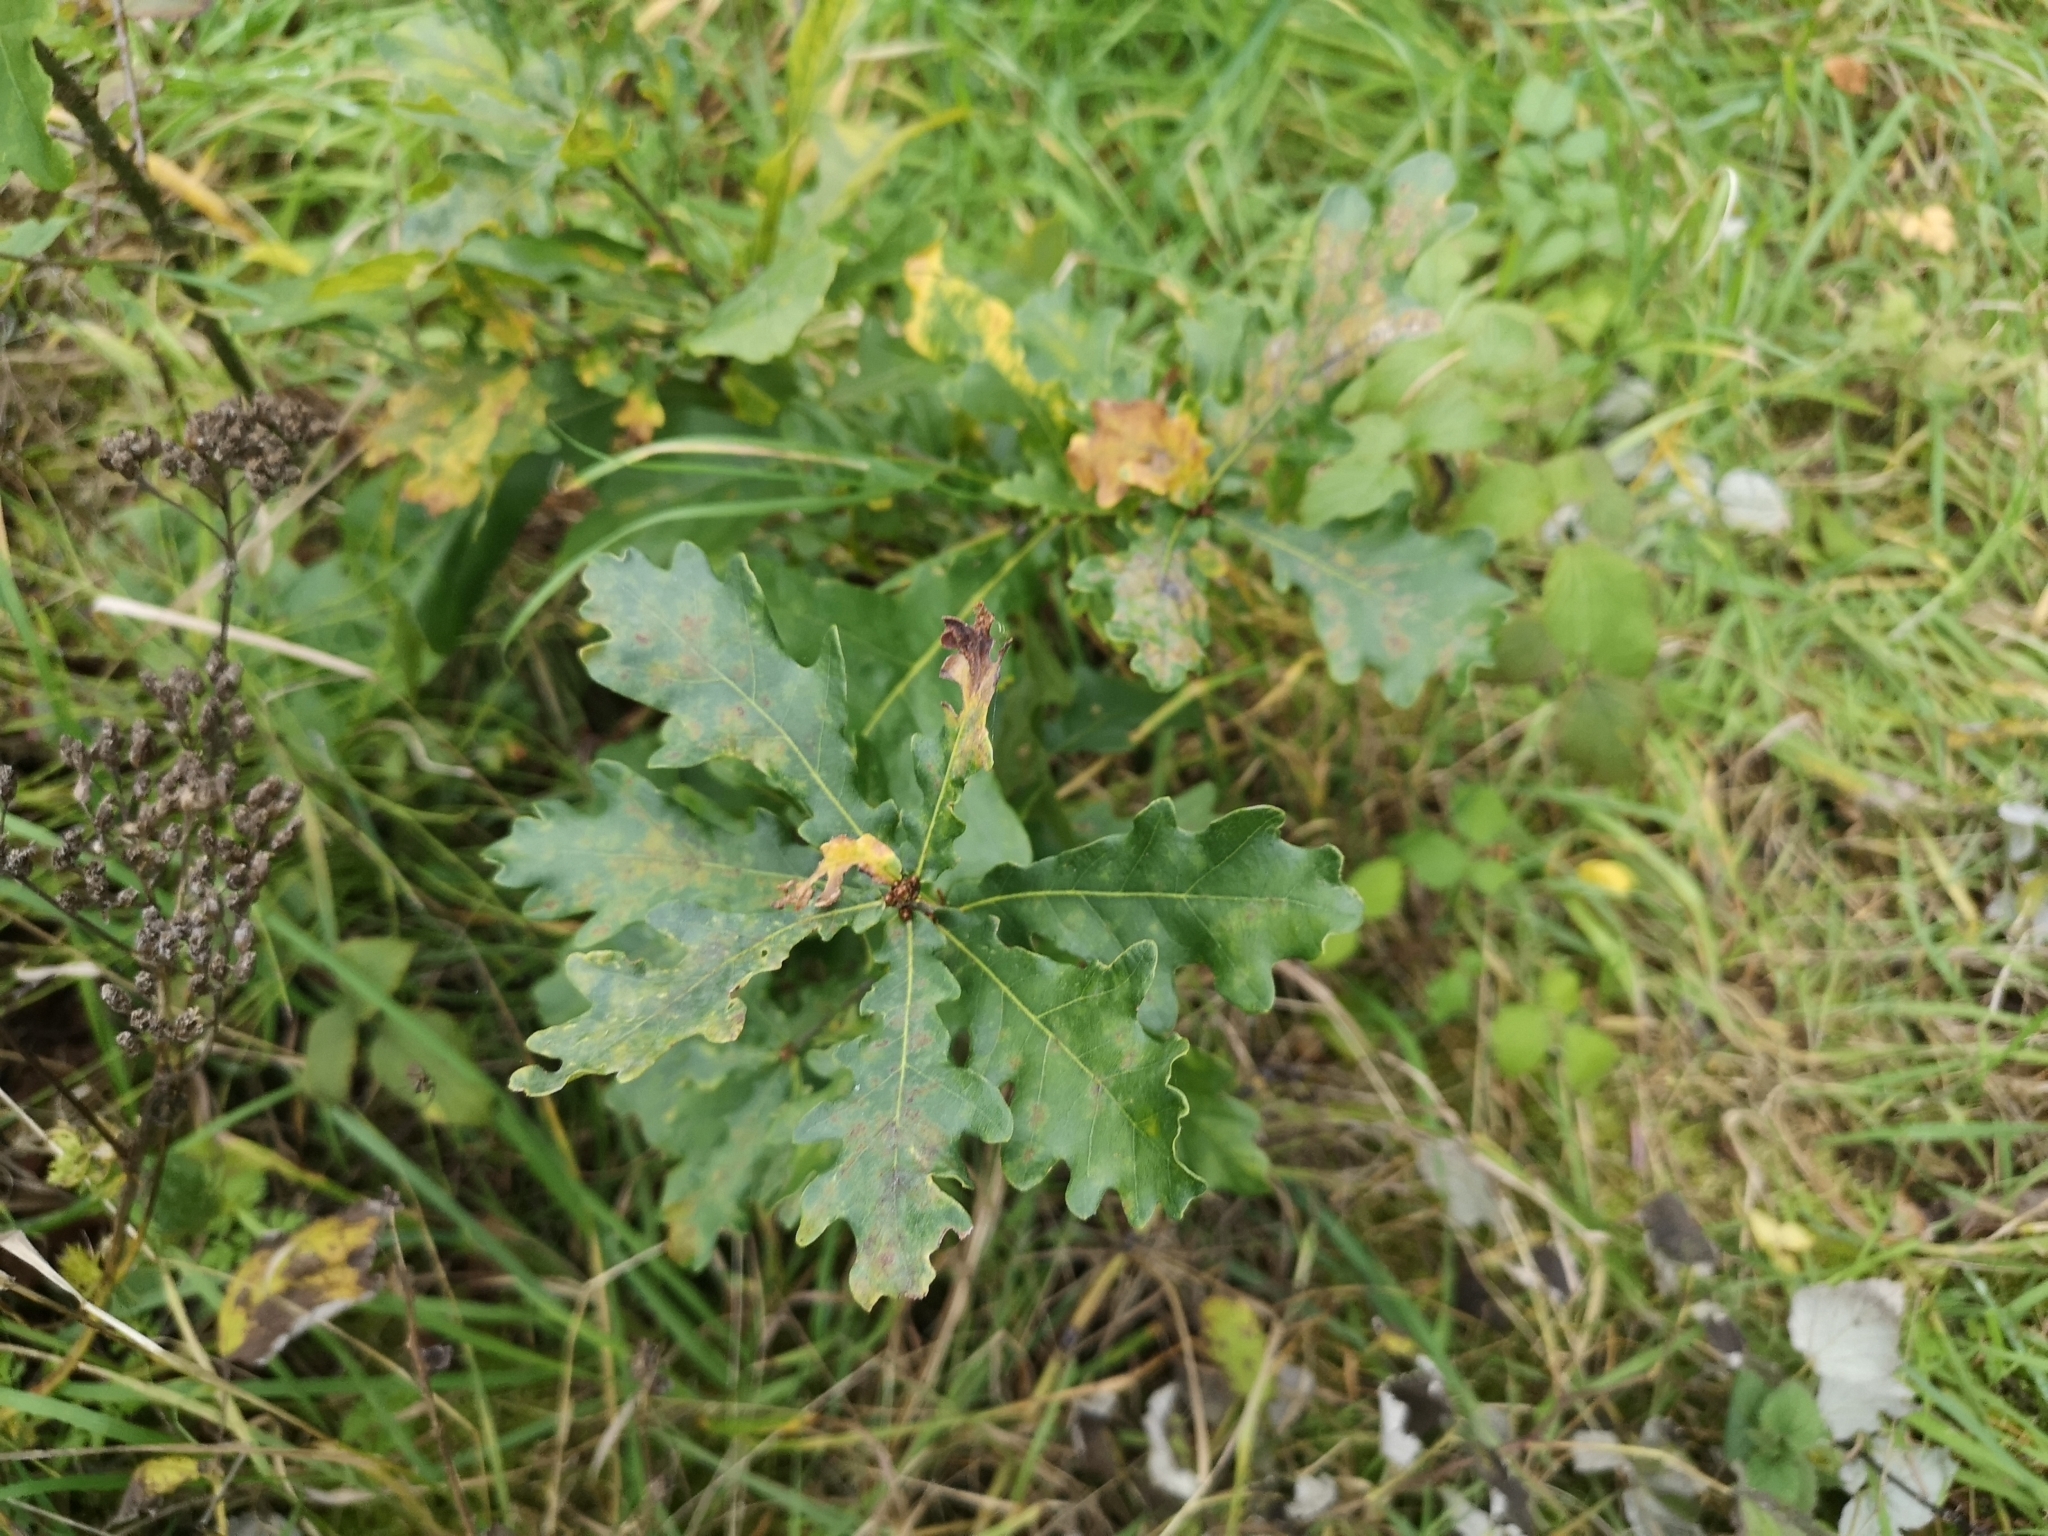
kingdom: Plantae
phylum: Tracheophyta
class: Magnoliopsida
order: Fagales
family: Fagaceae
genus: Quercus
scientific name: Quercus robur
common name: Pedunculate oak
